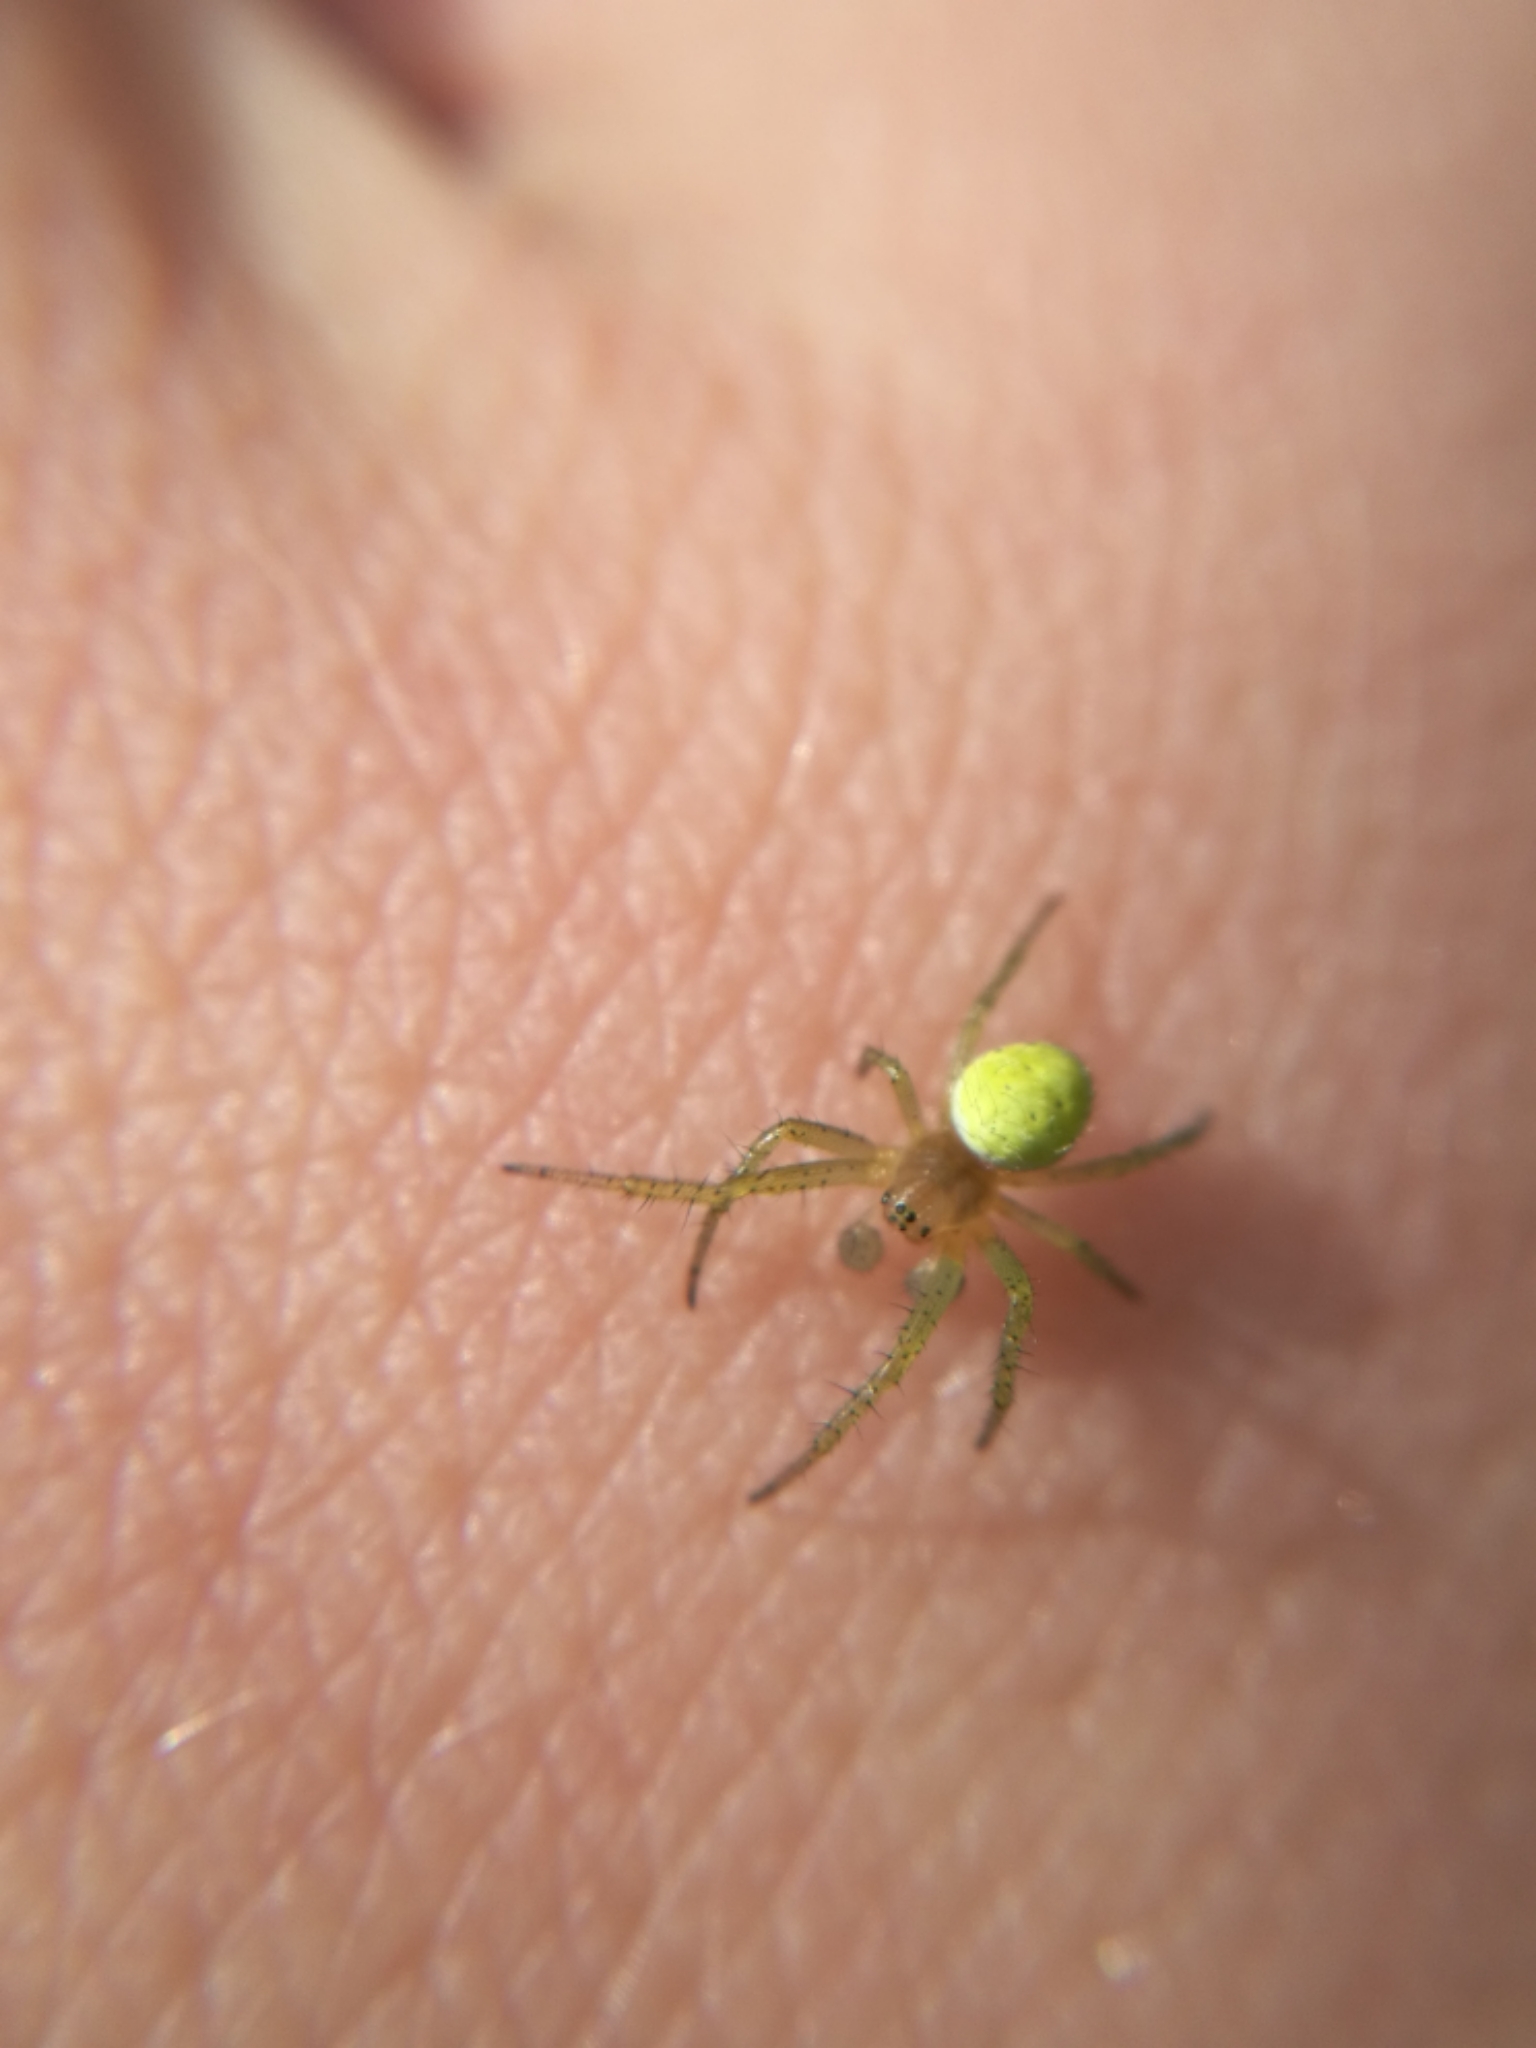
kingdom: Animalia
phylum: Arthropoda
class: Arachnida
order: Araneae
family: Araneidae
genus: Araniella
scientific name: Araniella
